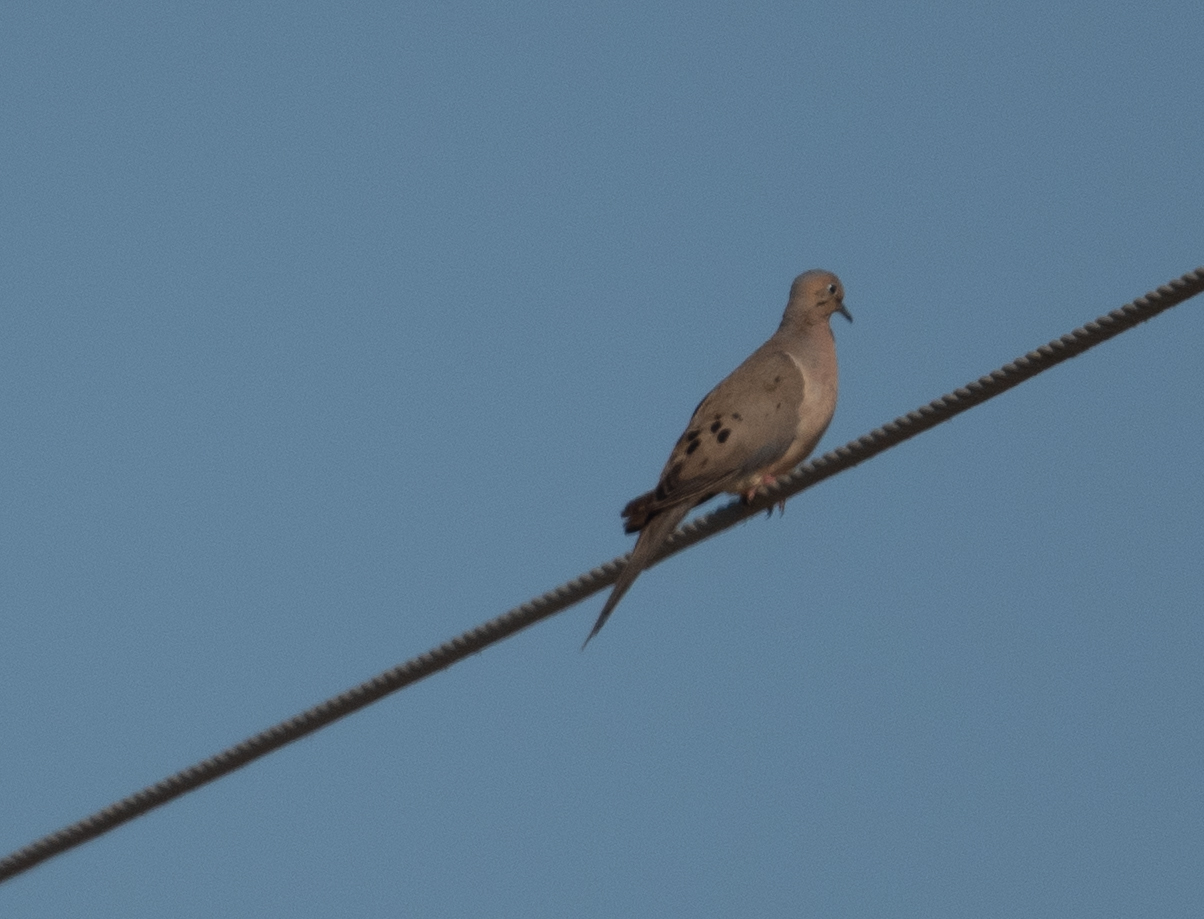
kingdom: Animalia
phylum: Chordata
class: Aves
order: Columbiformes
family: Columbidae
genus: Zenaida
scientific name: Zenaida macroura
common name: Mourning dove
